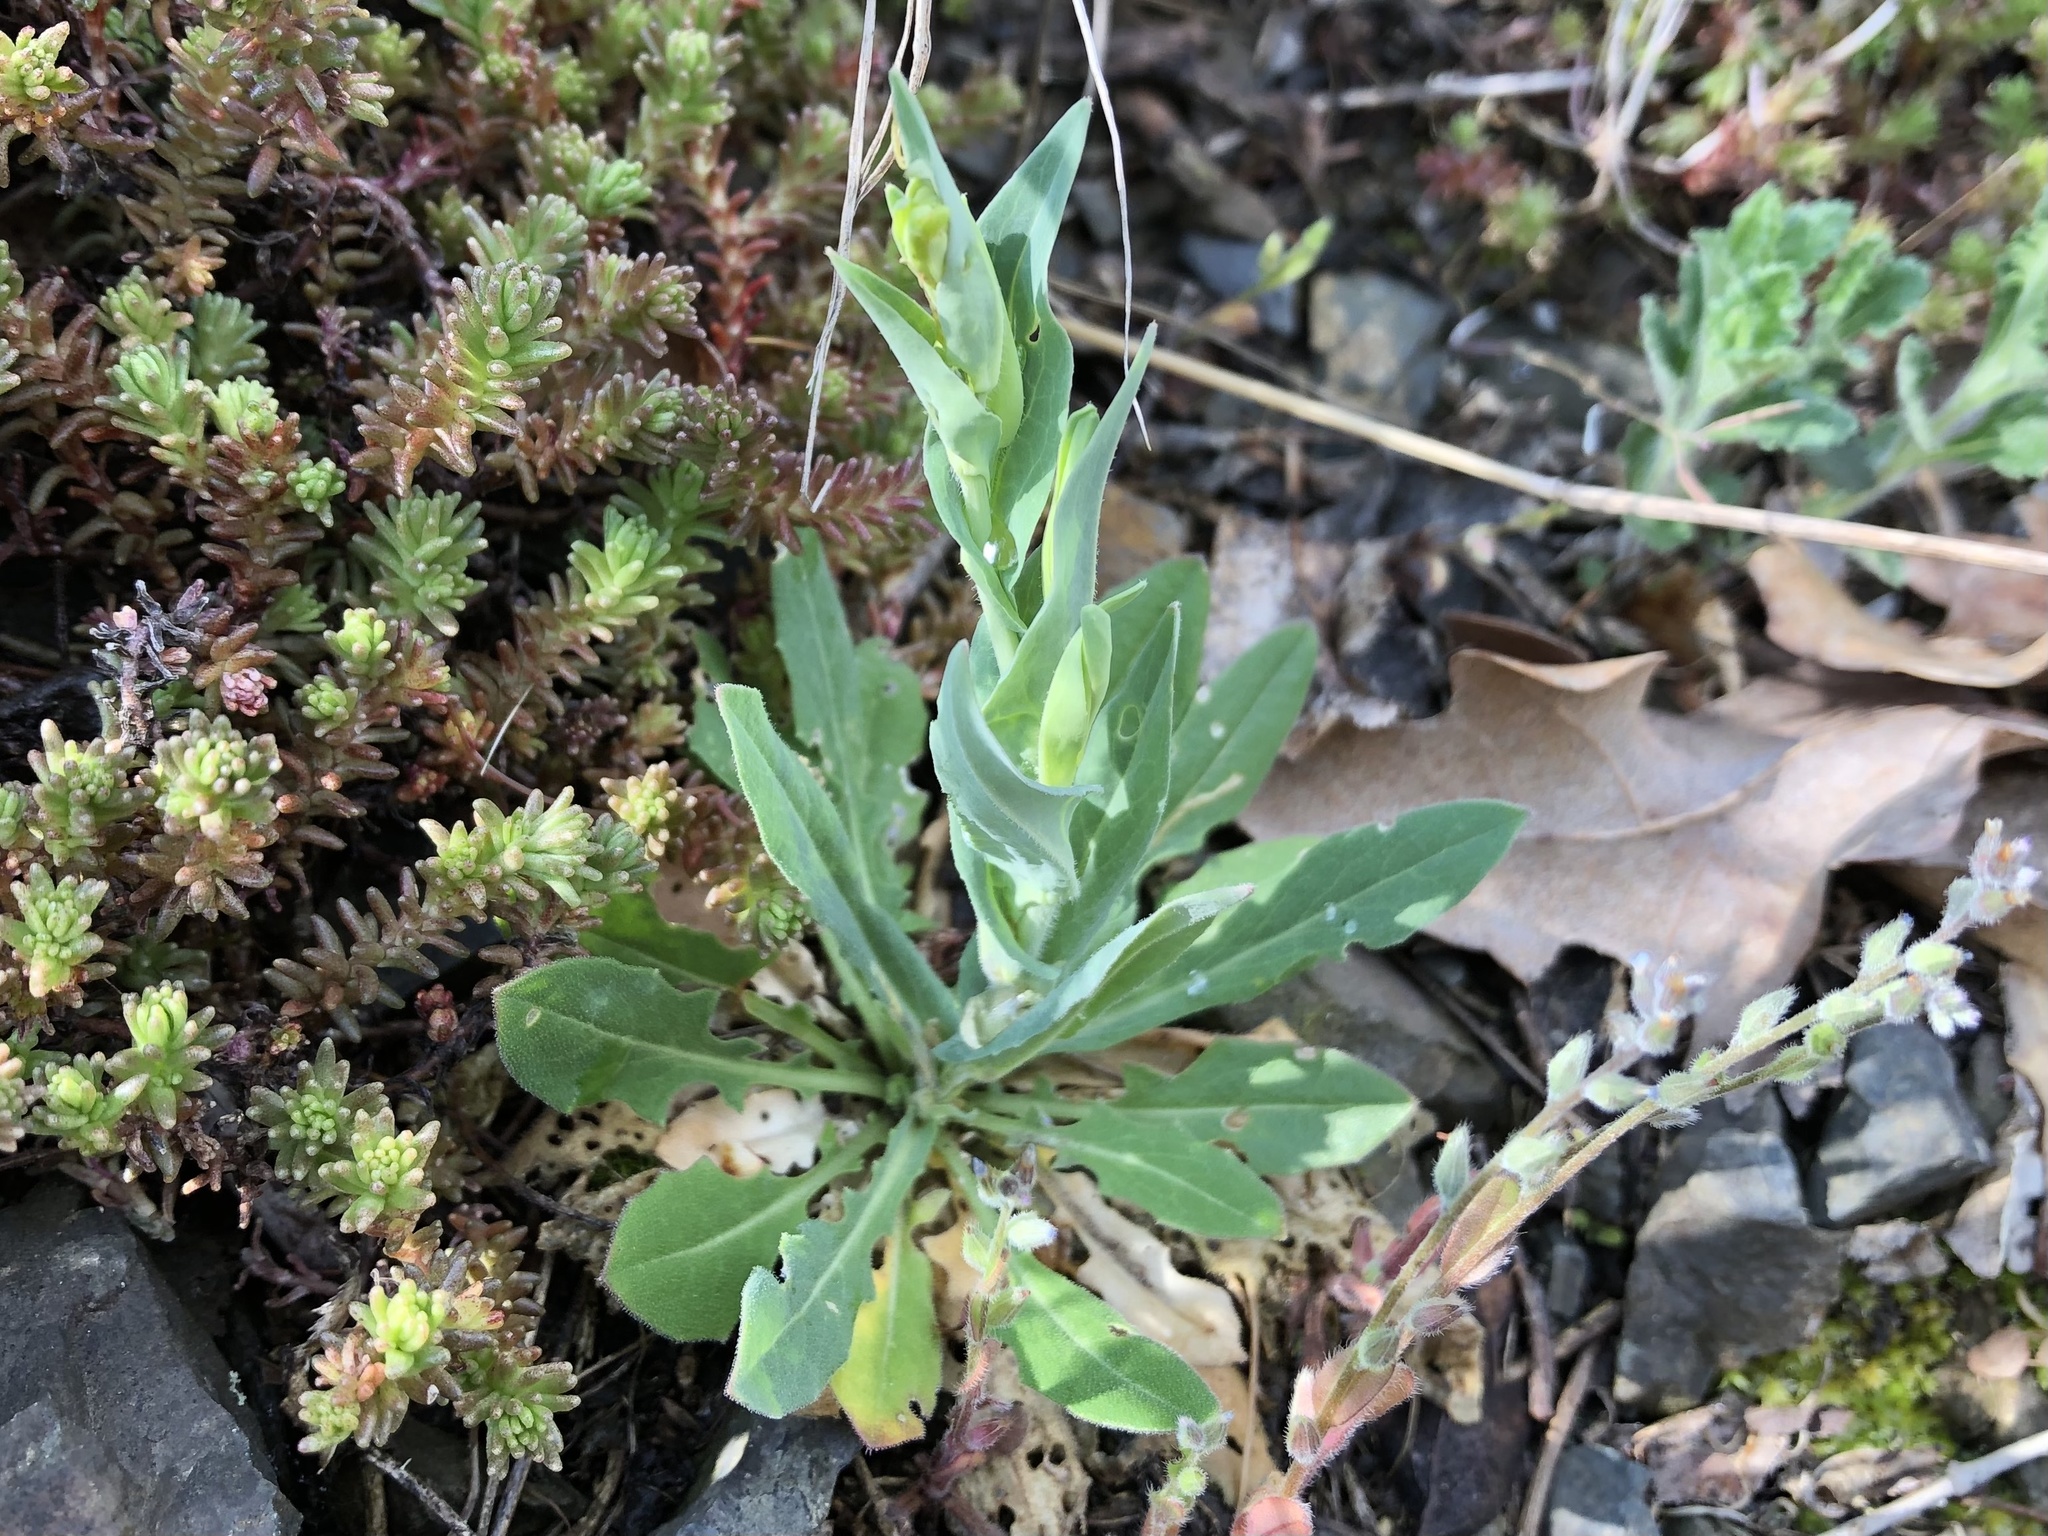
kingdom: Plantae
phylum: Tracheophyta
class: Magnoliopsida
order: Brassicales
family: Brassicaceae
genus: Turritis
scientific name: Turritis glabra
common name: Tower rockcress
